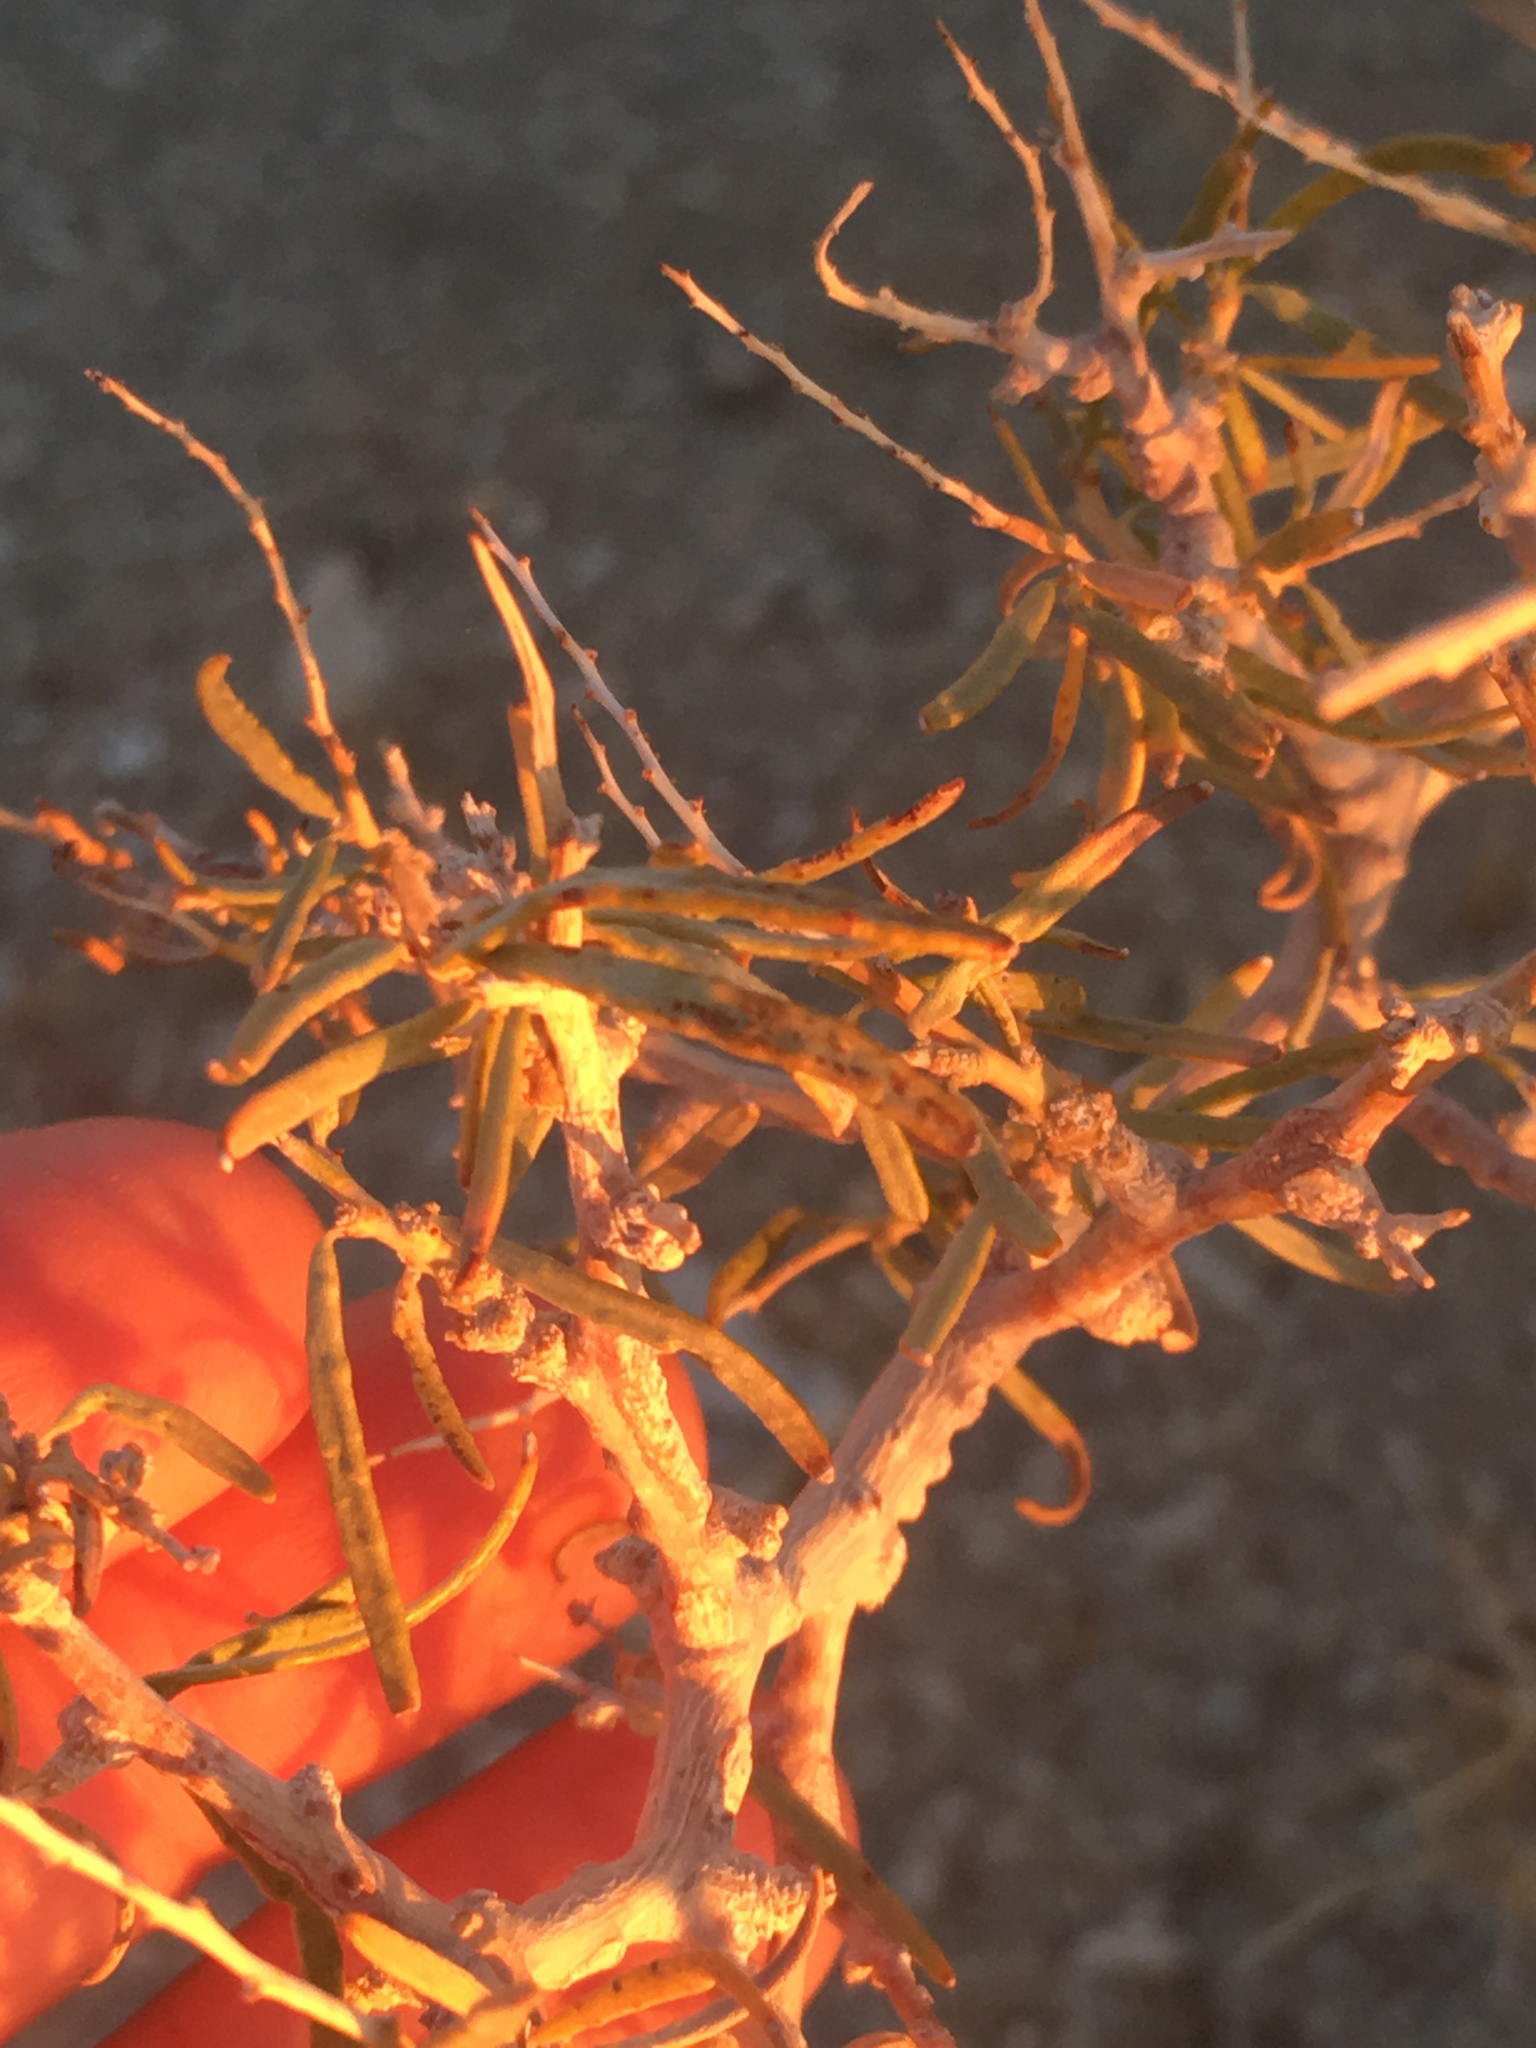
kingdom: Plantae
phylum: Tracheophyta
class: Magnoliopsida
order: Fabales
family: Fabaceae
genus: Psorothamnus
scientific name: Psorothamnus schottii
